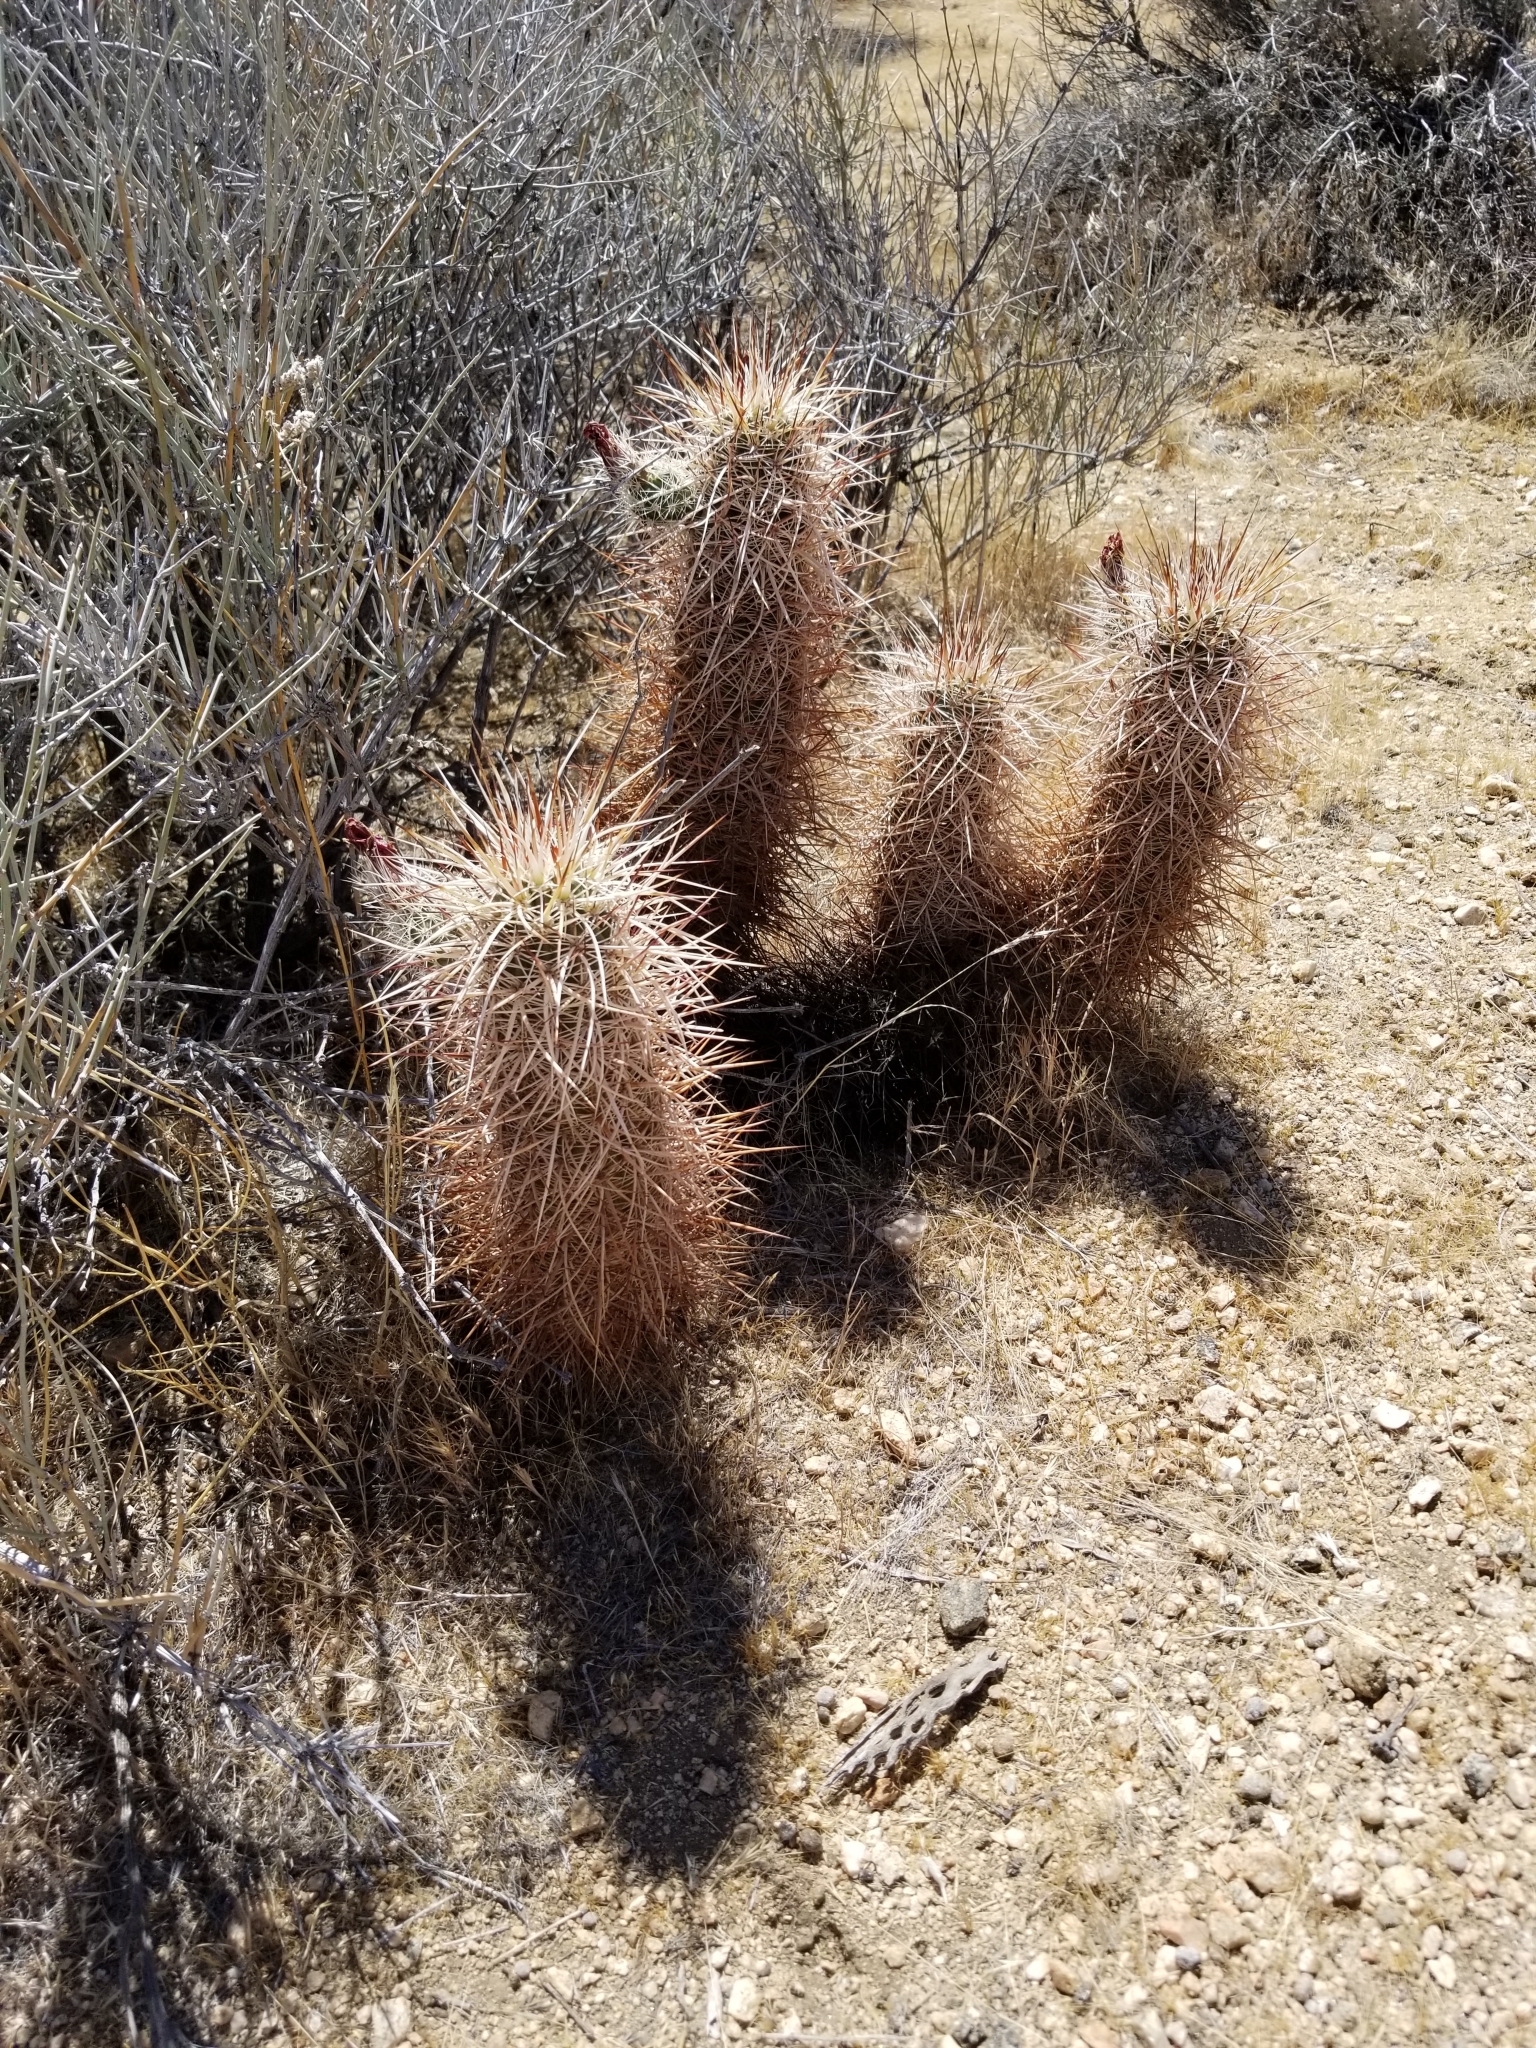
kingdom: Plantae
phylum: Tracheophyta
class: Magnoliopsida
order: Caryophyllales
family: Cactaceae
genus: Echinocereus
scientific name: Echinocereus engelmannii
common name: Engelmann's hedgehog cactus
